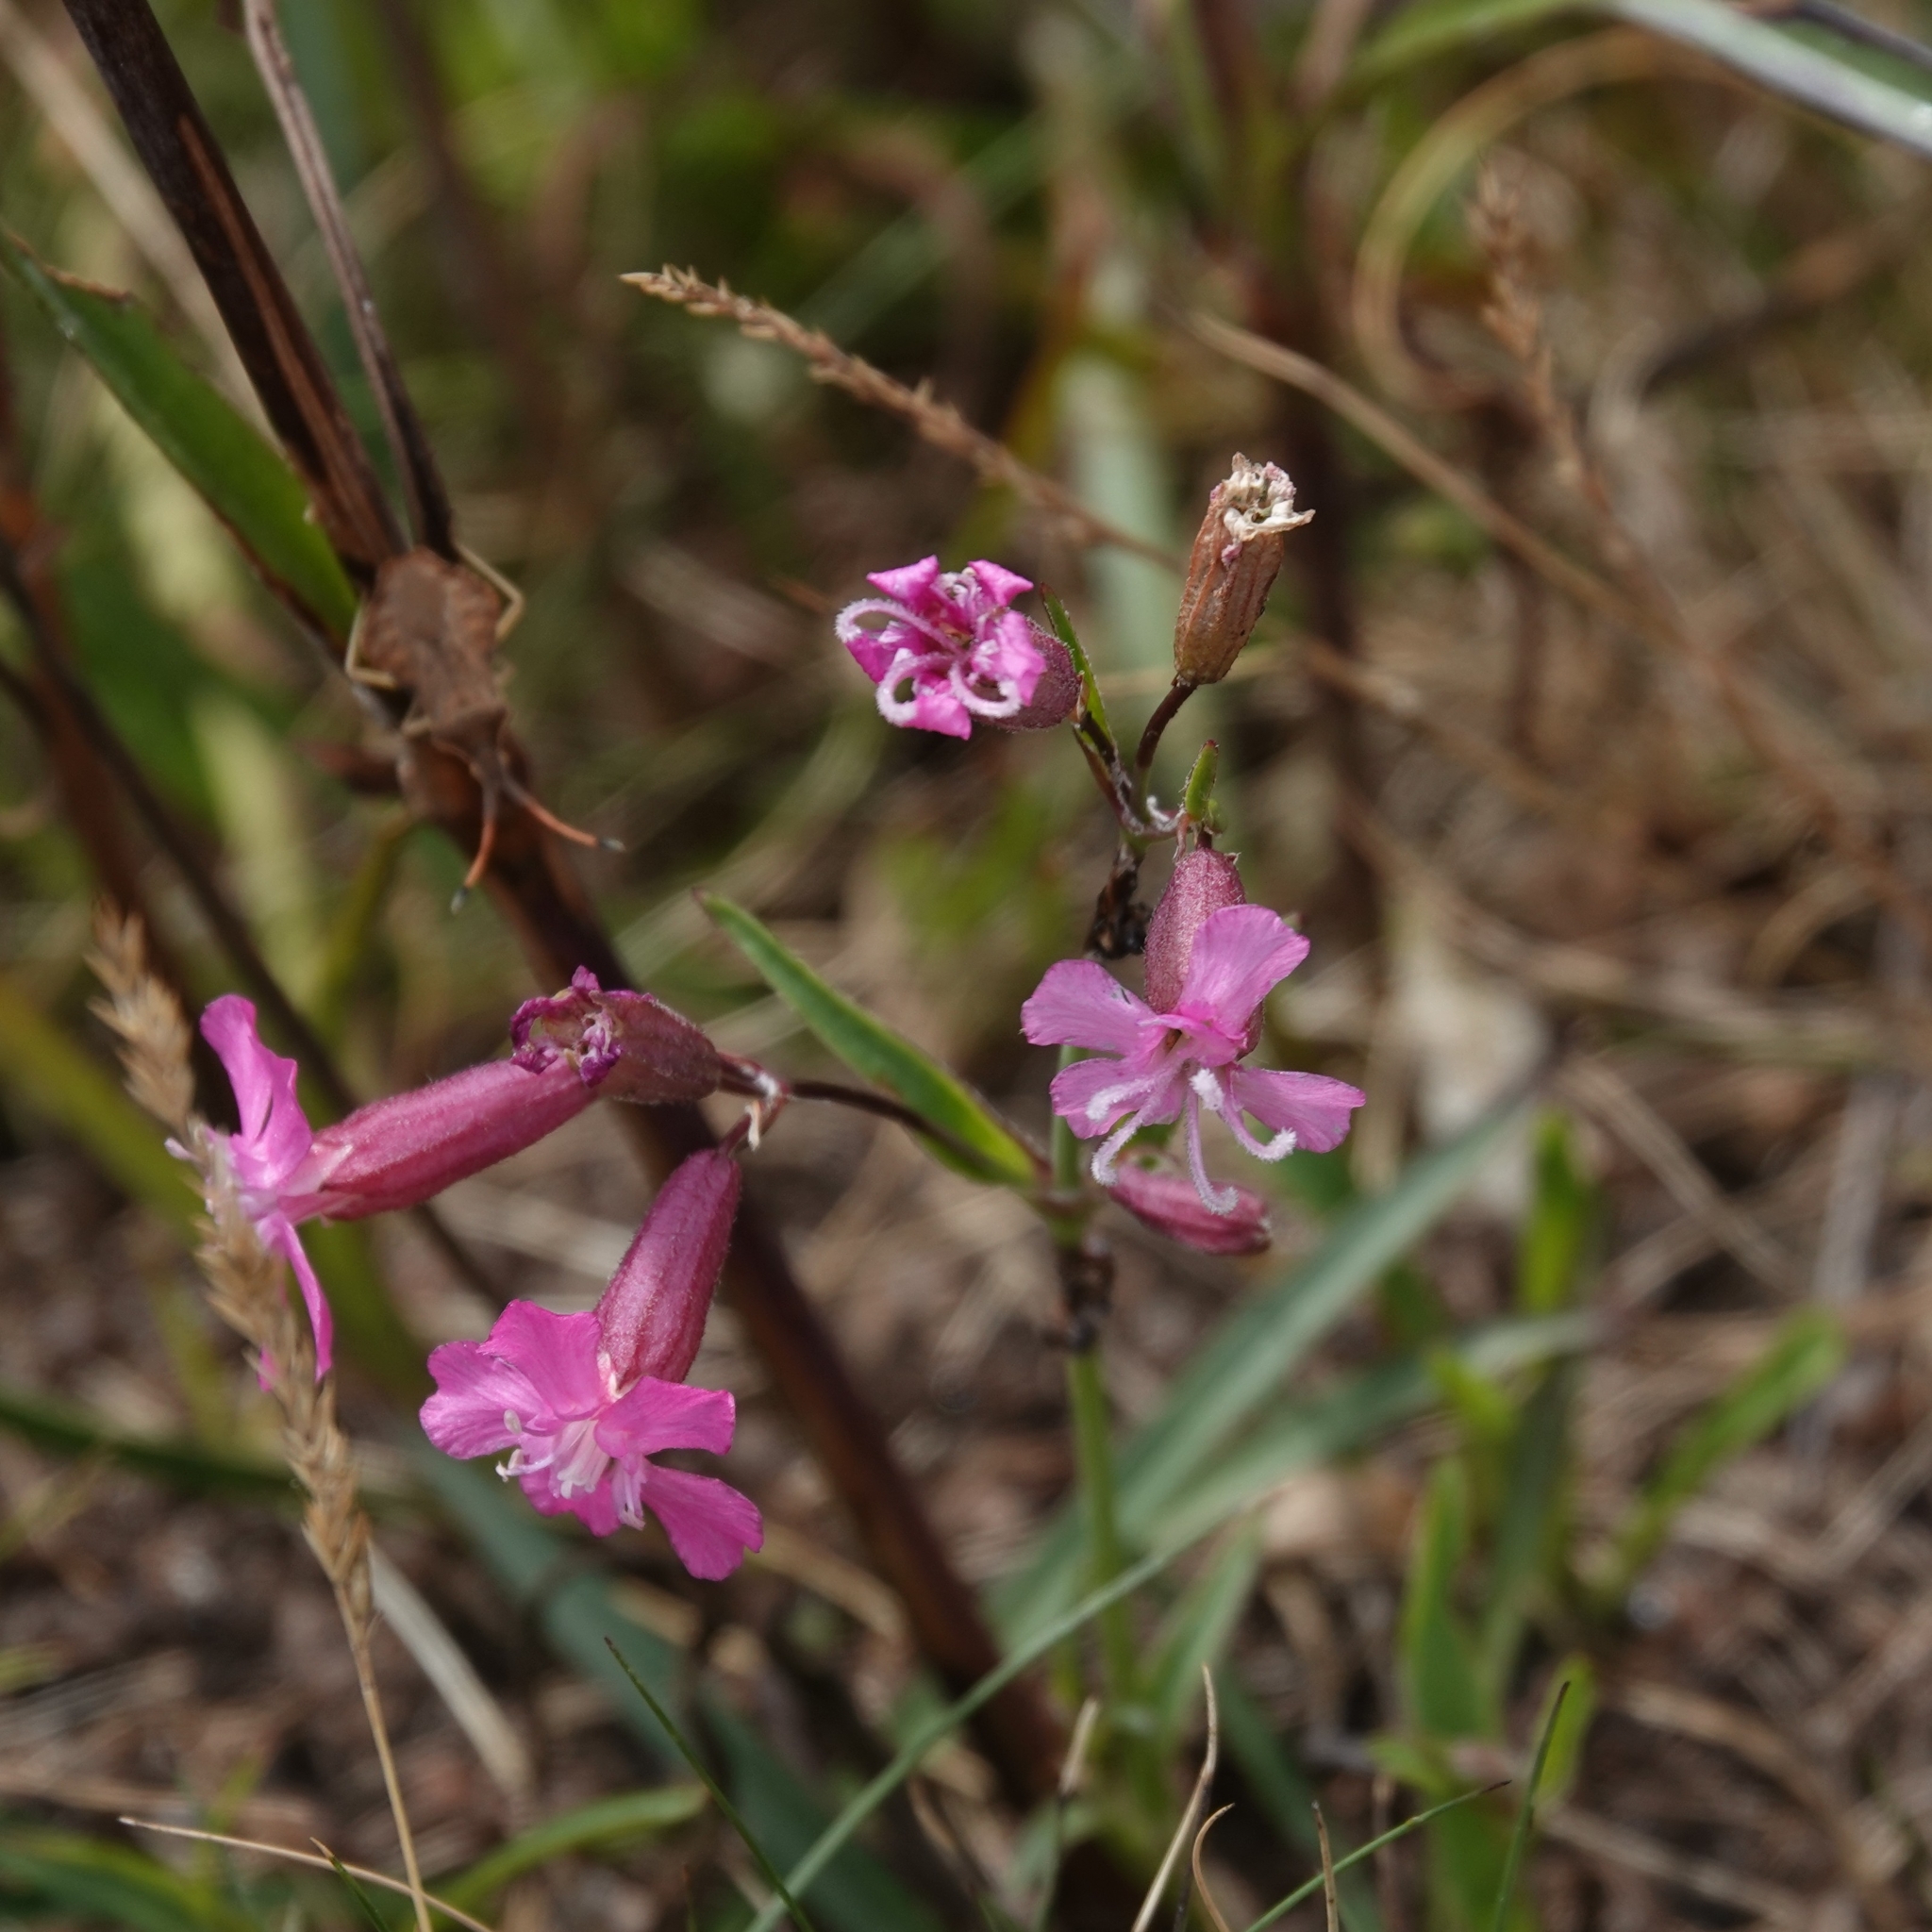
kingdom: Plantae
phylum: Tracheophyta
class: Magnoliopsida
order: Caryophyllales
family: Caryophyllaceae
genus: Viscaria
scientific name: Viscaria vulgaris
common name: Clammy campion
